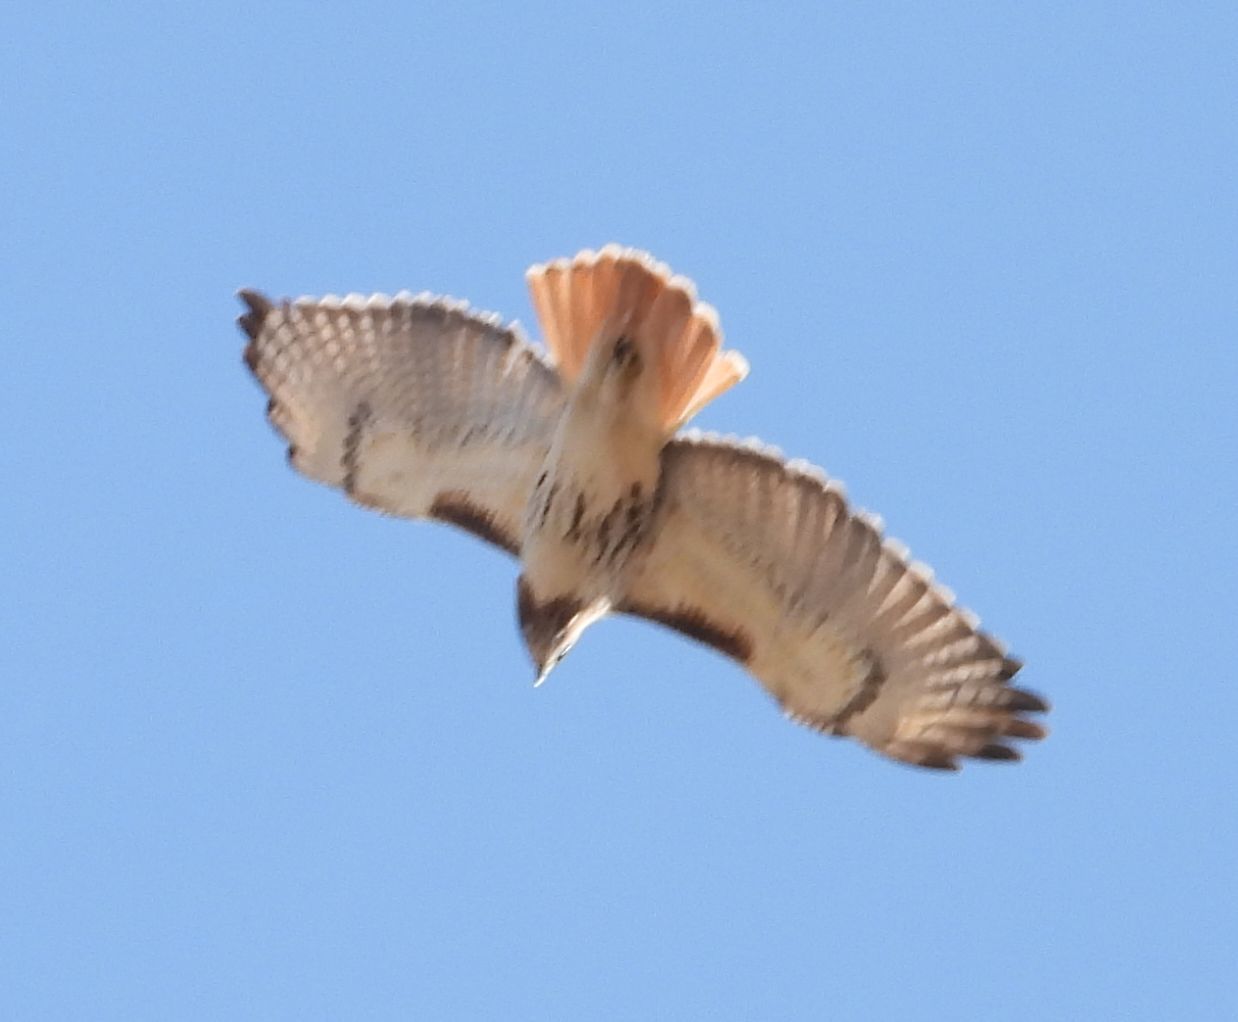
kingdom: Animalia
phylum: Chordata
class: Aves
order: Accipitriformes
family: Accipitridae
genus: Buteo
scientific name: Buteo jamaicensis
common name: Red-tailed hawk
